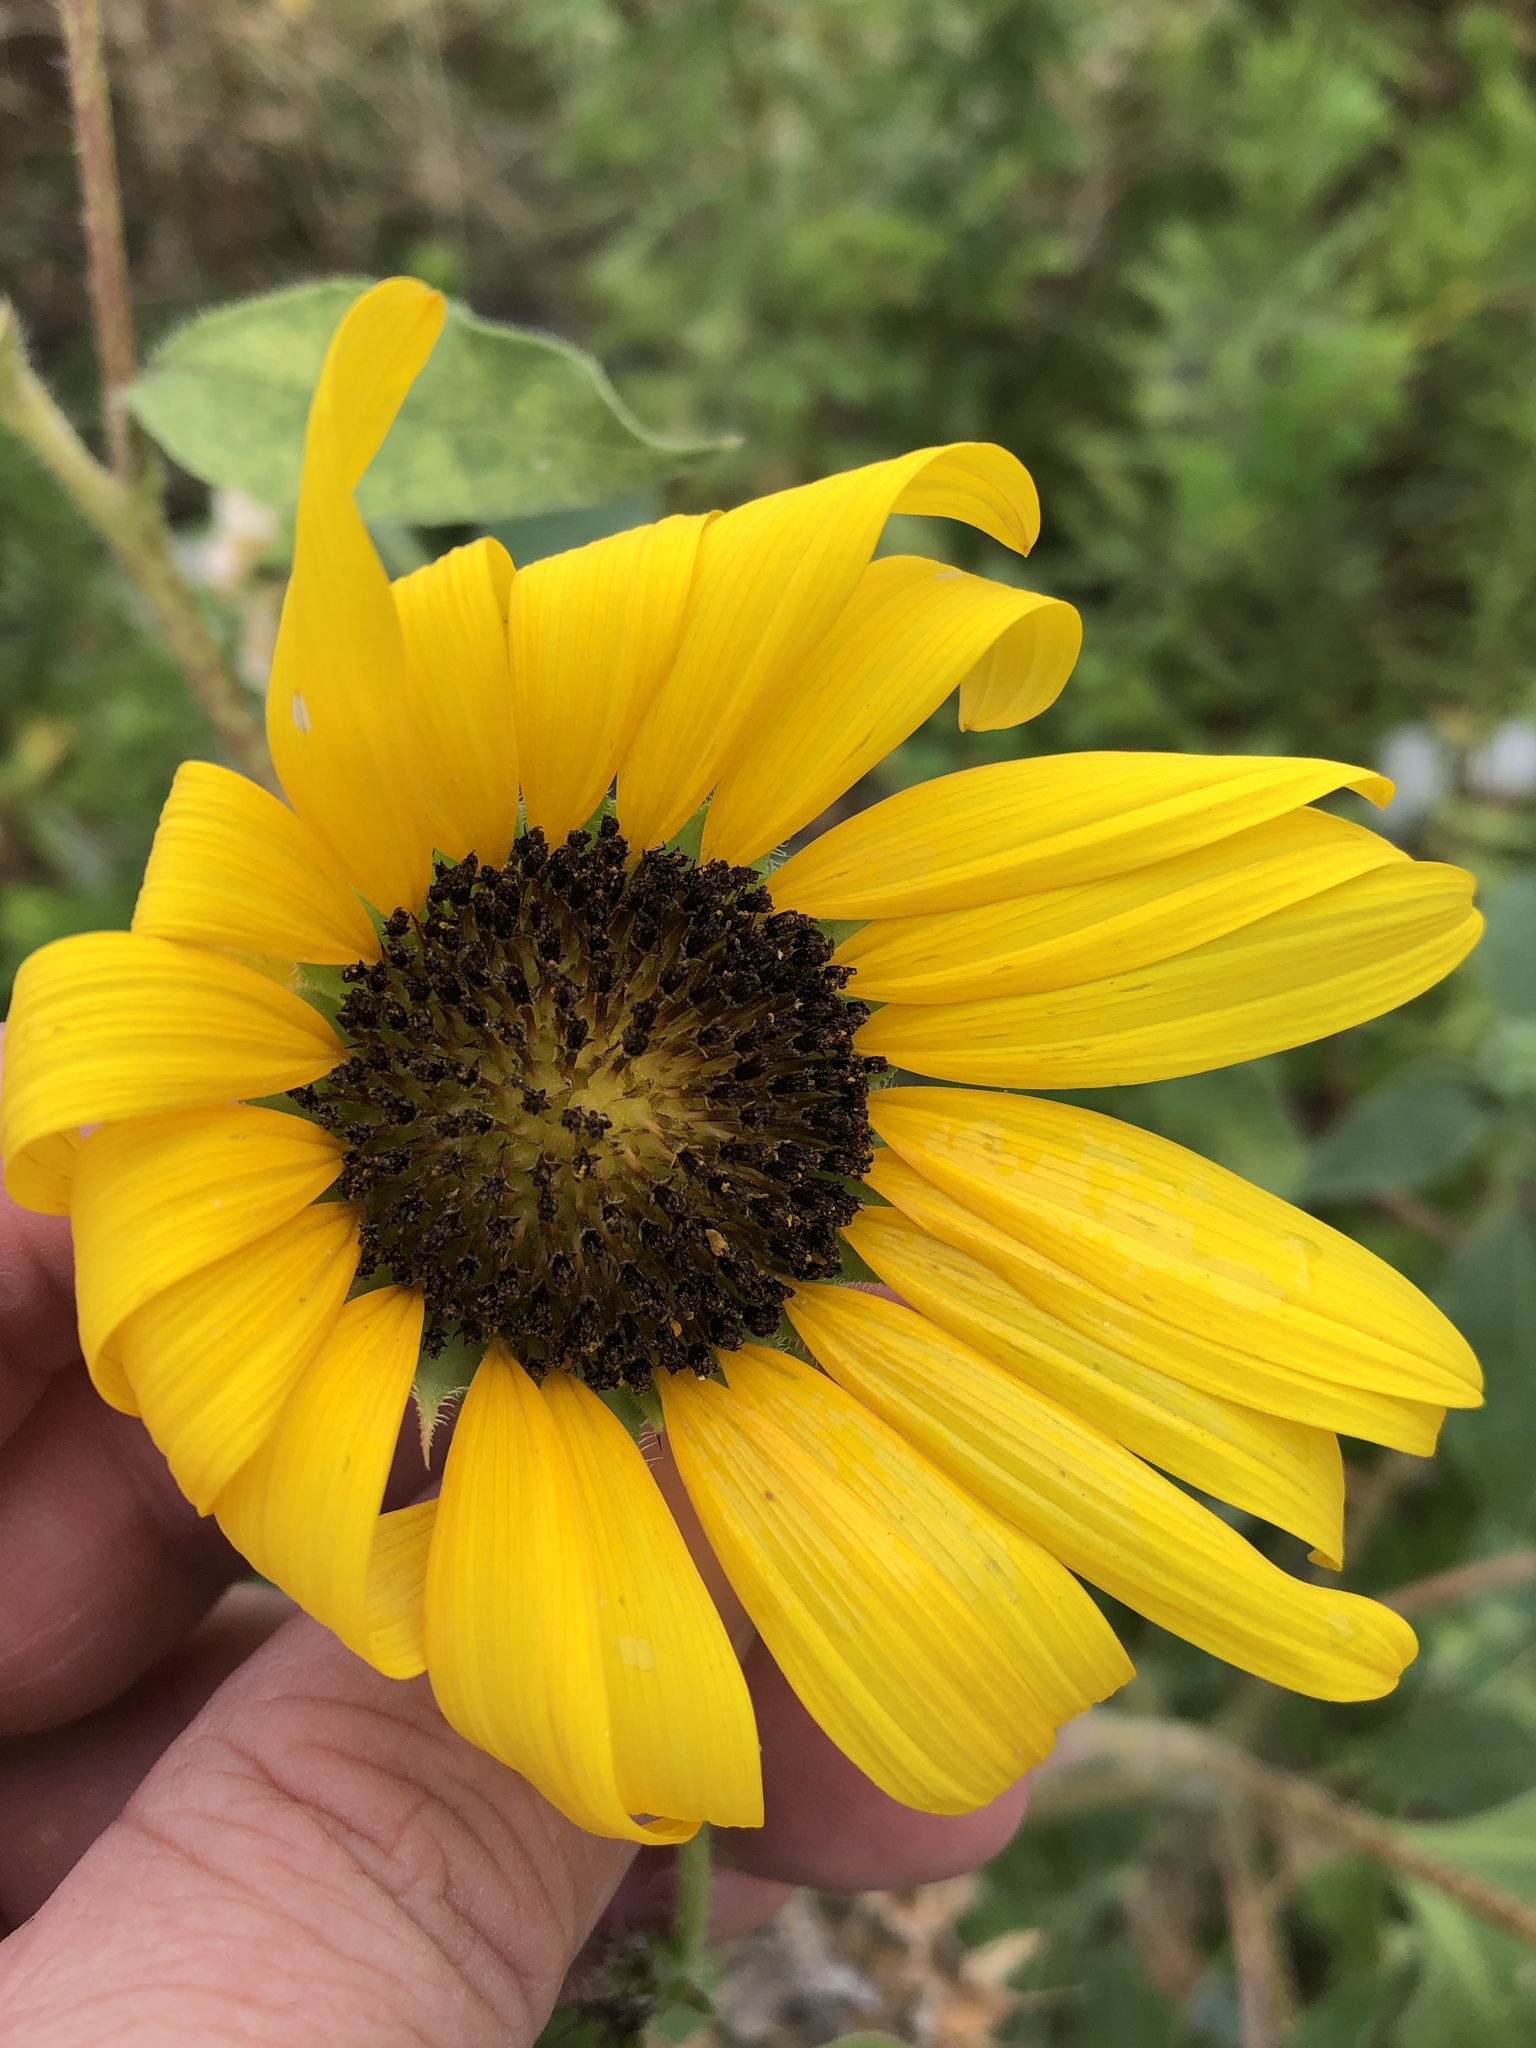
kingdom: Plantae
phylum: Tracheophyta
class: Magnoliopsida
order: Asterales
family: Asteraceae
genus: Helianthus
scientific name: Helianthus annuus
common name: Sunflower
